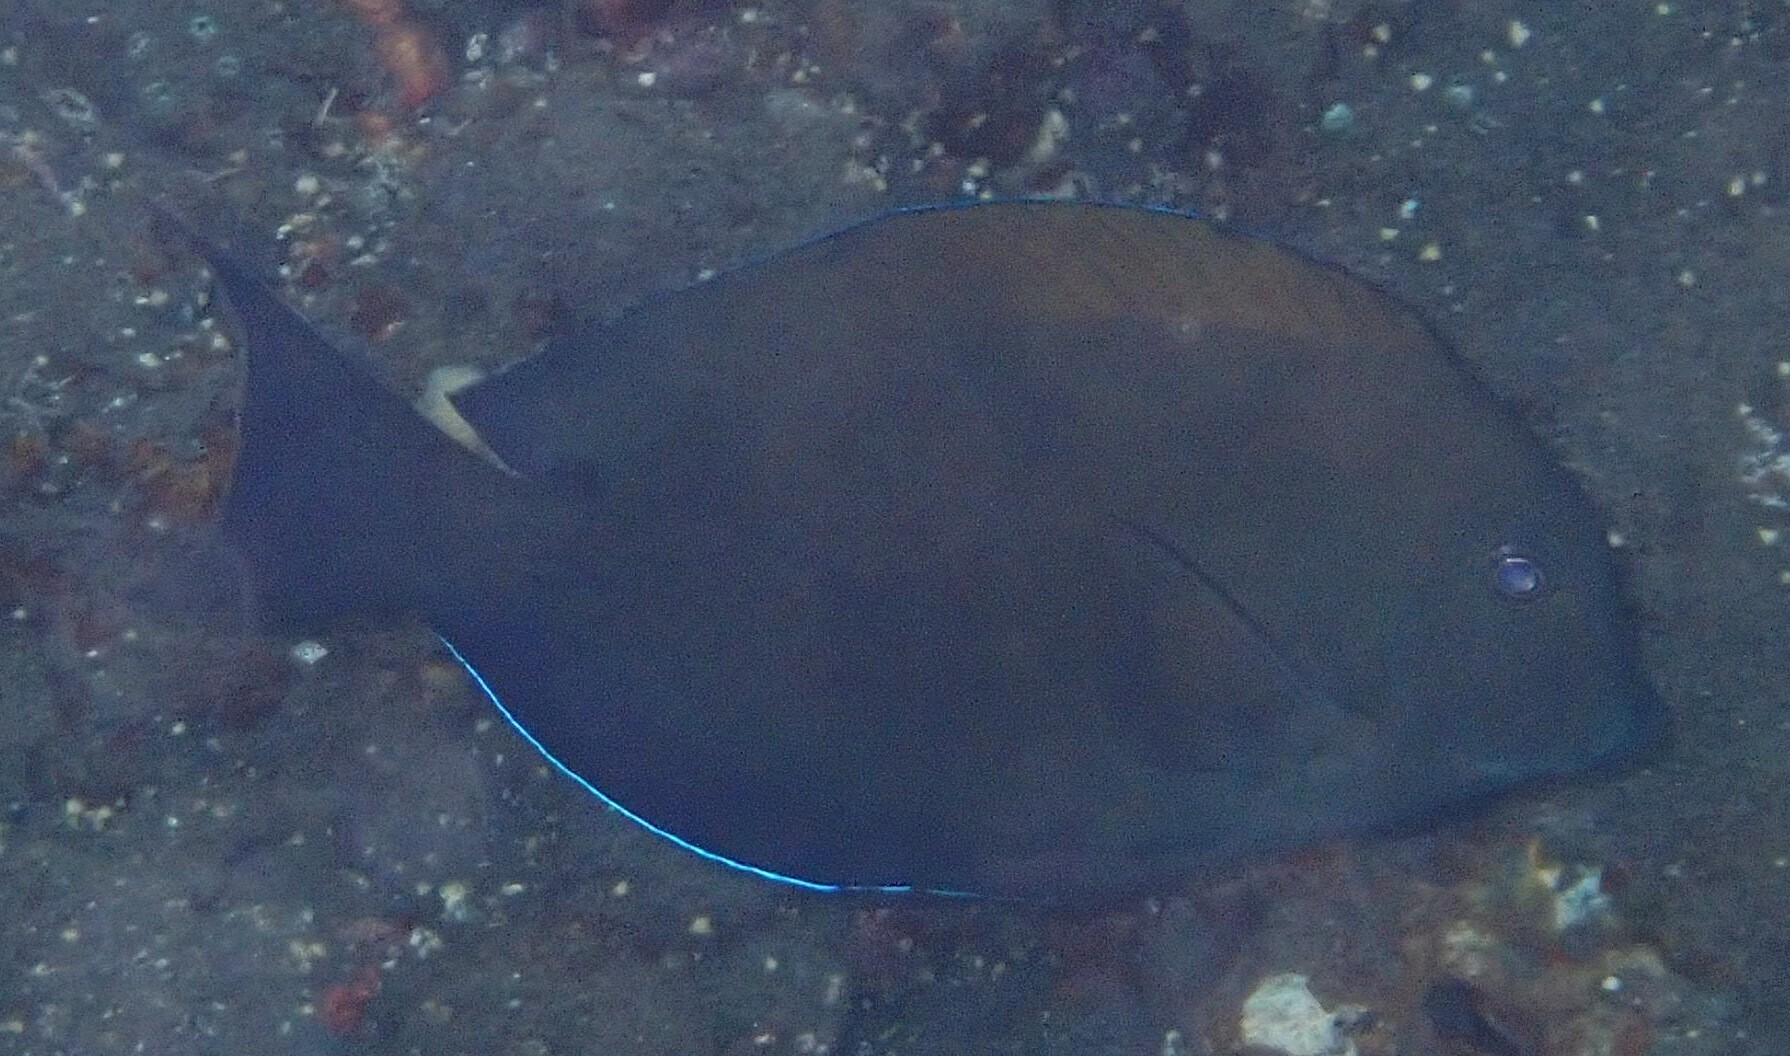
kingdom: Animalia
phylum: Chordata
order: Perciformes
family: Acanthuridae
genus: Acanthurus
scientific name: Acanthurus nigrofuscus
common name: Blackspot surgeonfish
